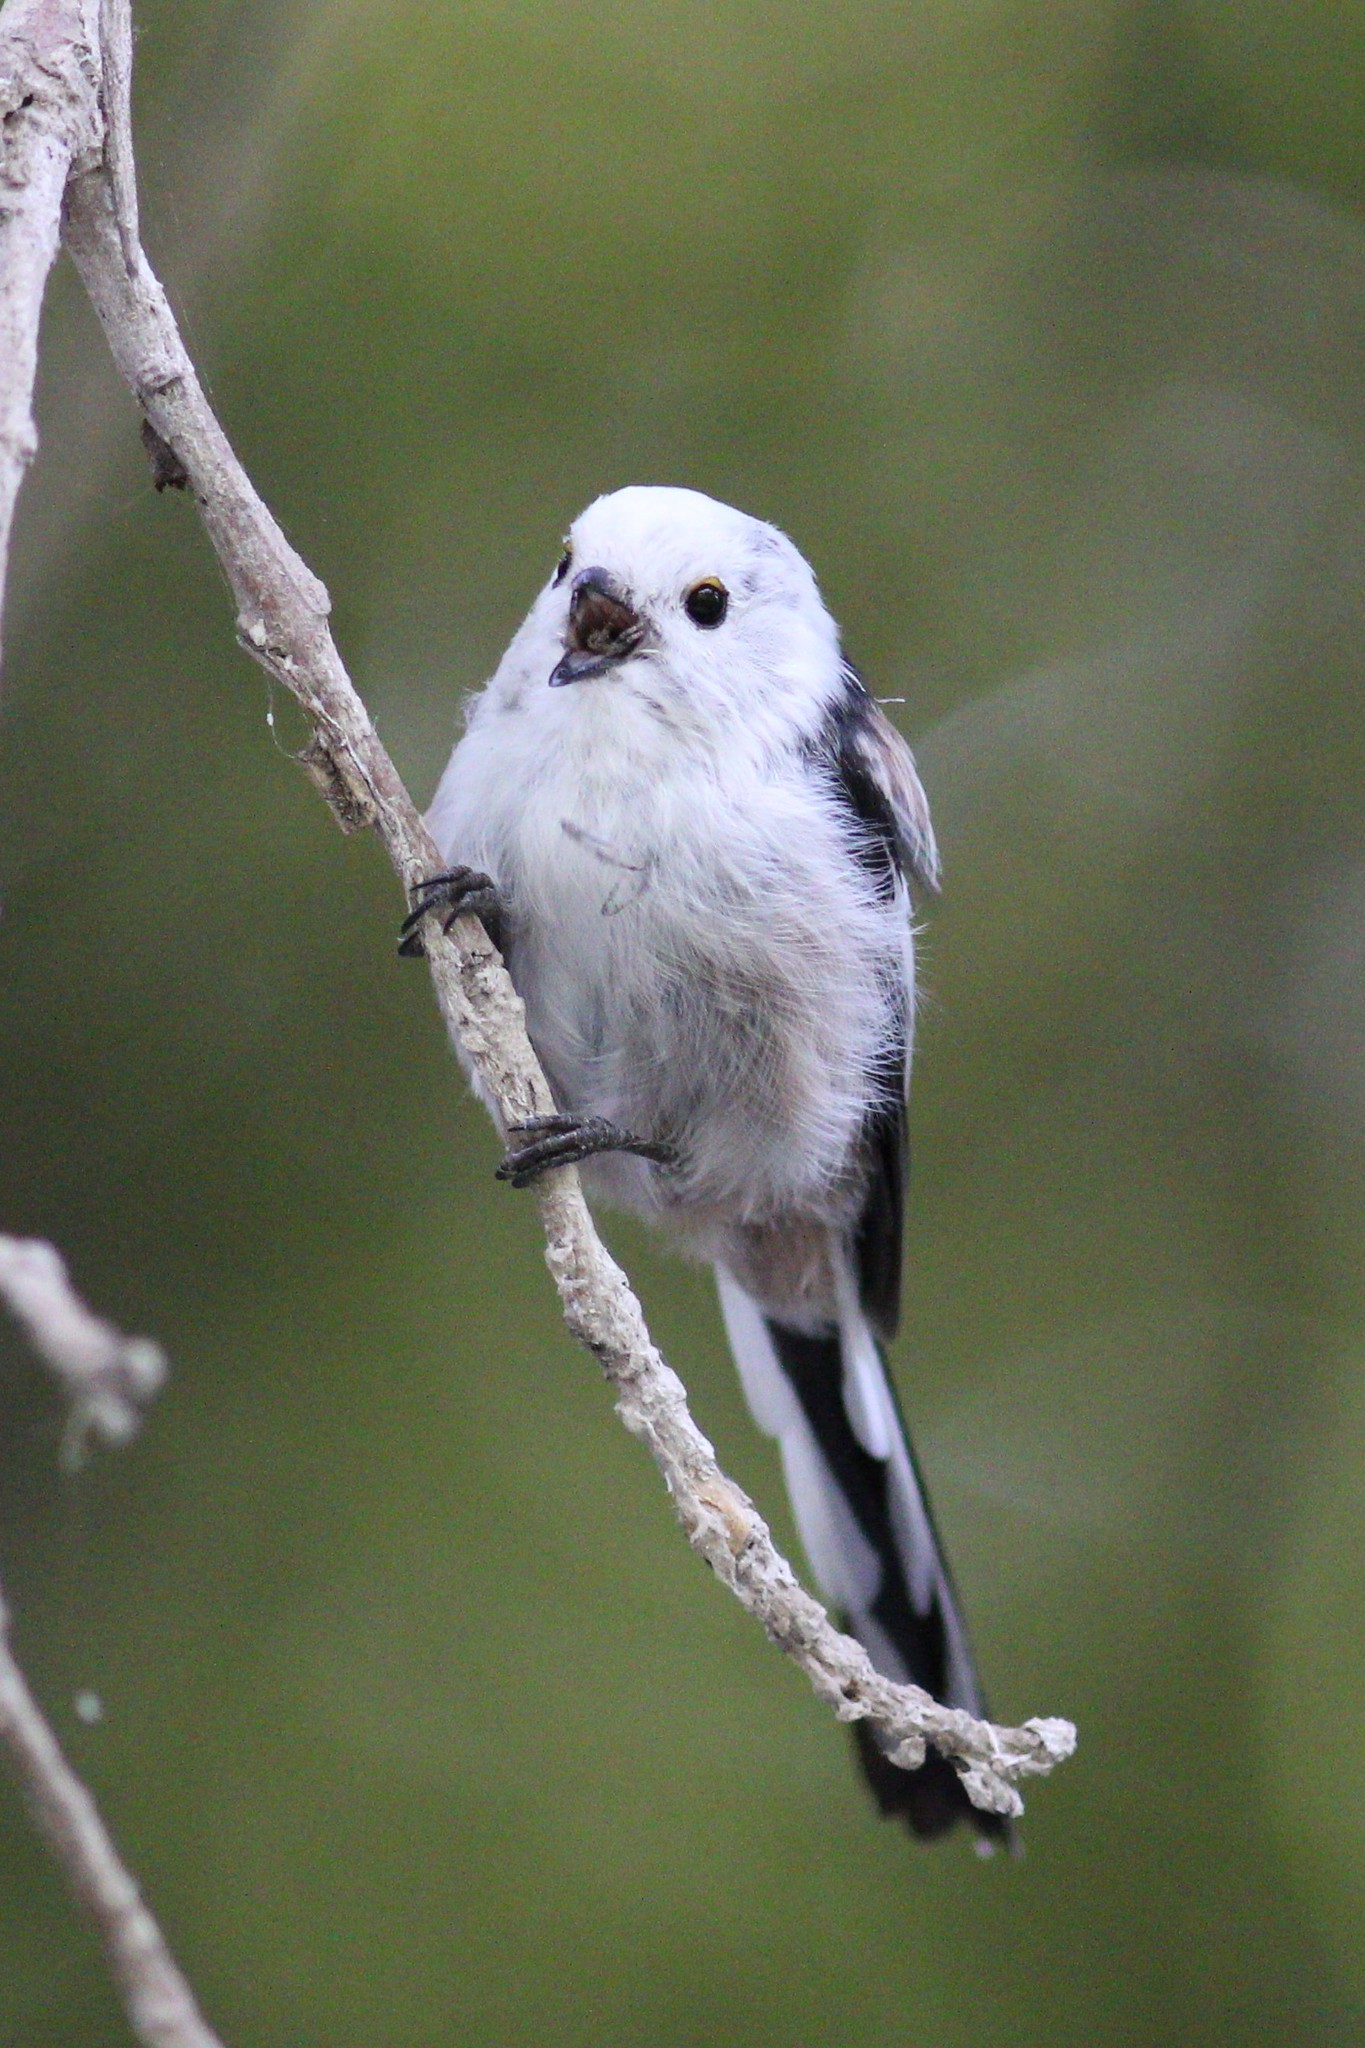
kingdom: Animalia
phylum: Chordata
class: Aves
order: Passeriformes
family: Aegithalidae
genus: Aegithalos
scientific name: Aegithalos caudatus
